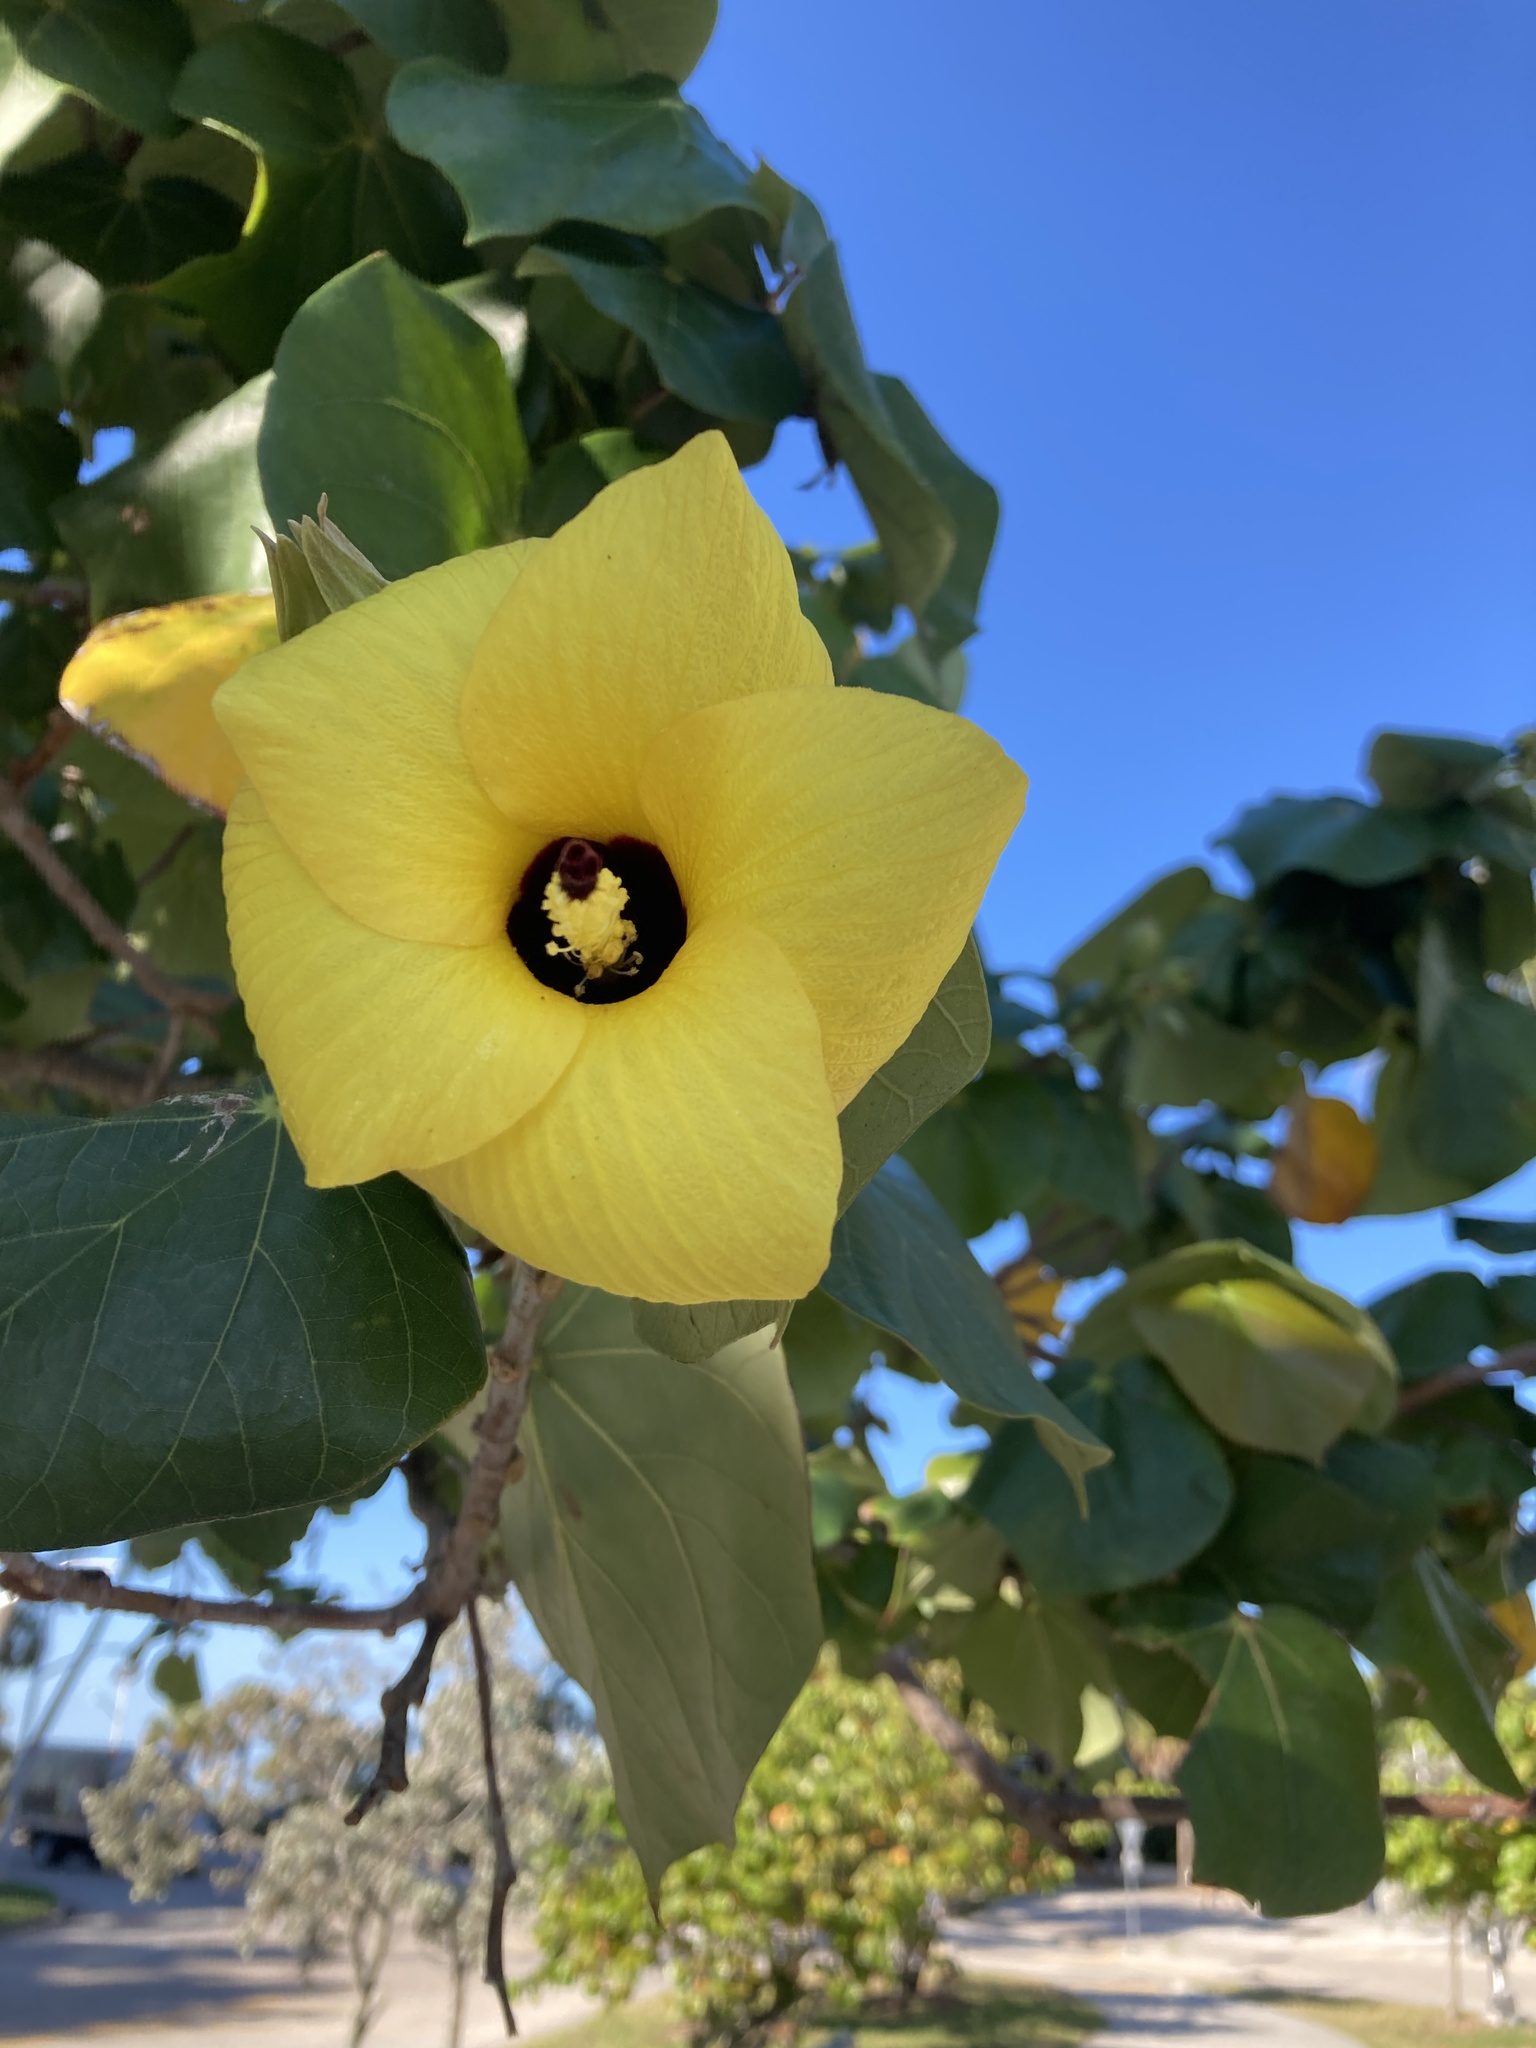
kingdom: Plantae
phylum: Tracheophyta
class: Magnoliopsida
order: Malvales
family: Malvaceae
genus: Talipariti
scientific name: Talipariti tiliaceum
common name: Sea hibiscus
